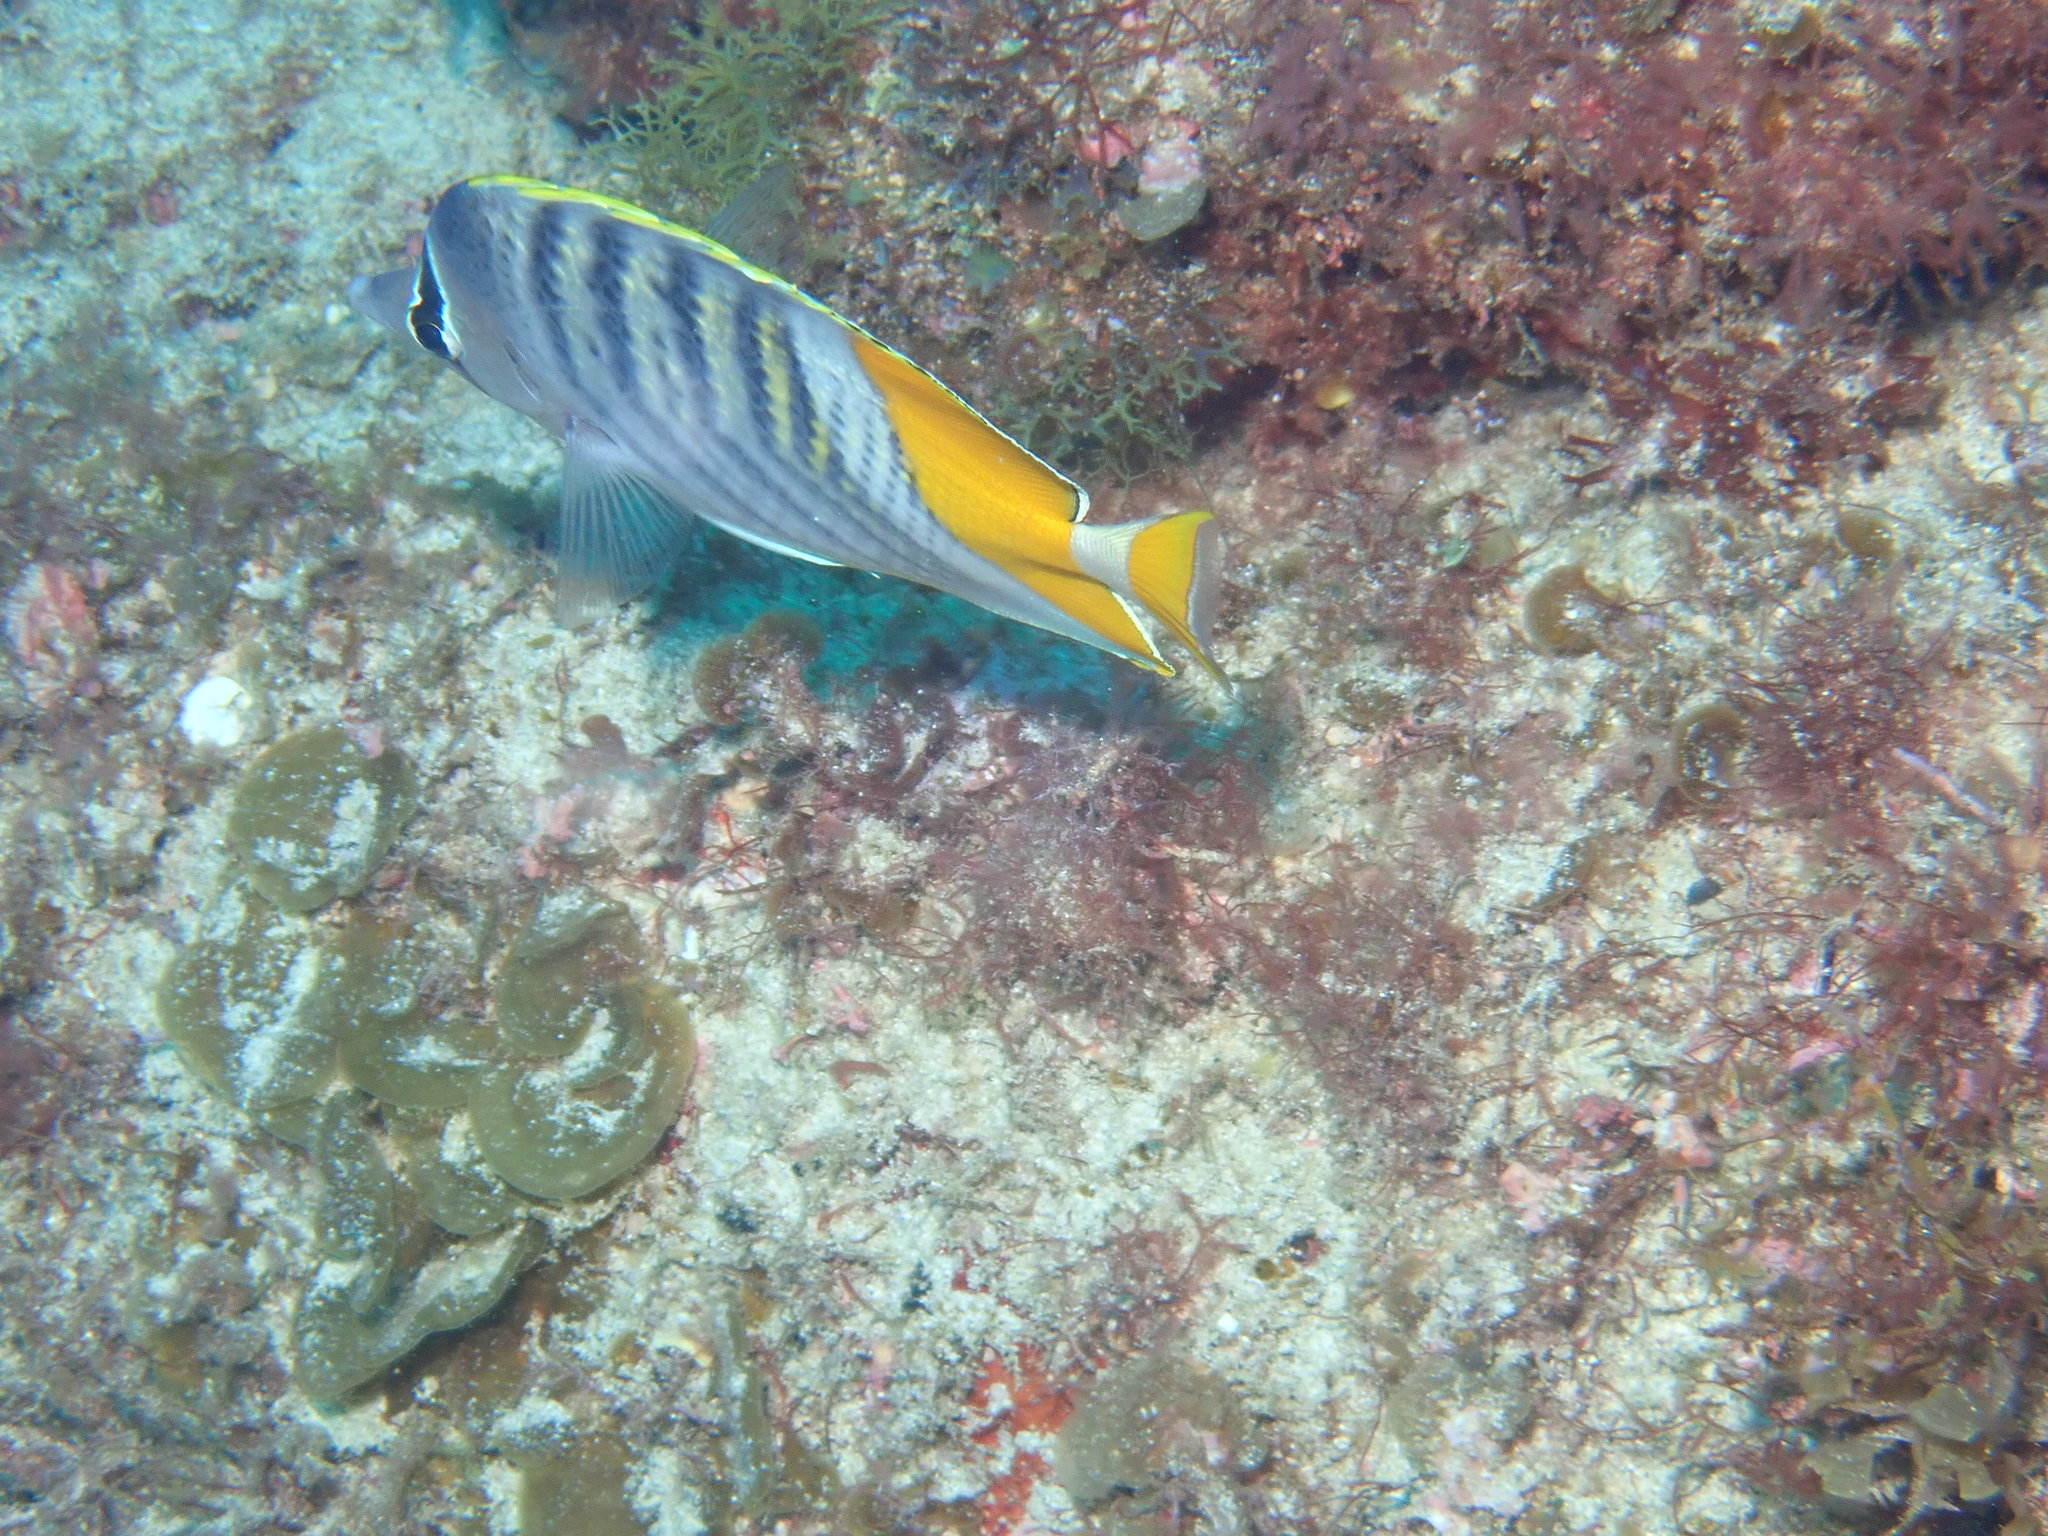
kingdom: Animalia
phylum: Chordata
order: Perciformes
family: Chaetodontidae
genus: Chaetodon
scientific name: Chaetodon mertensii
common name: Merten's butterflyfish
